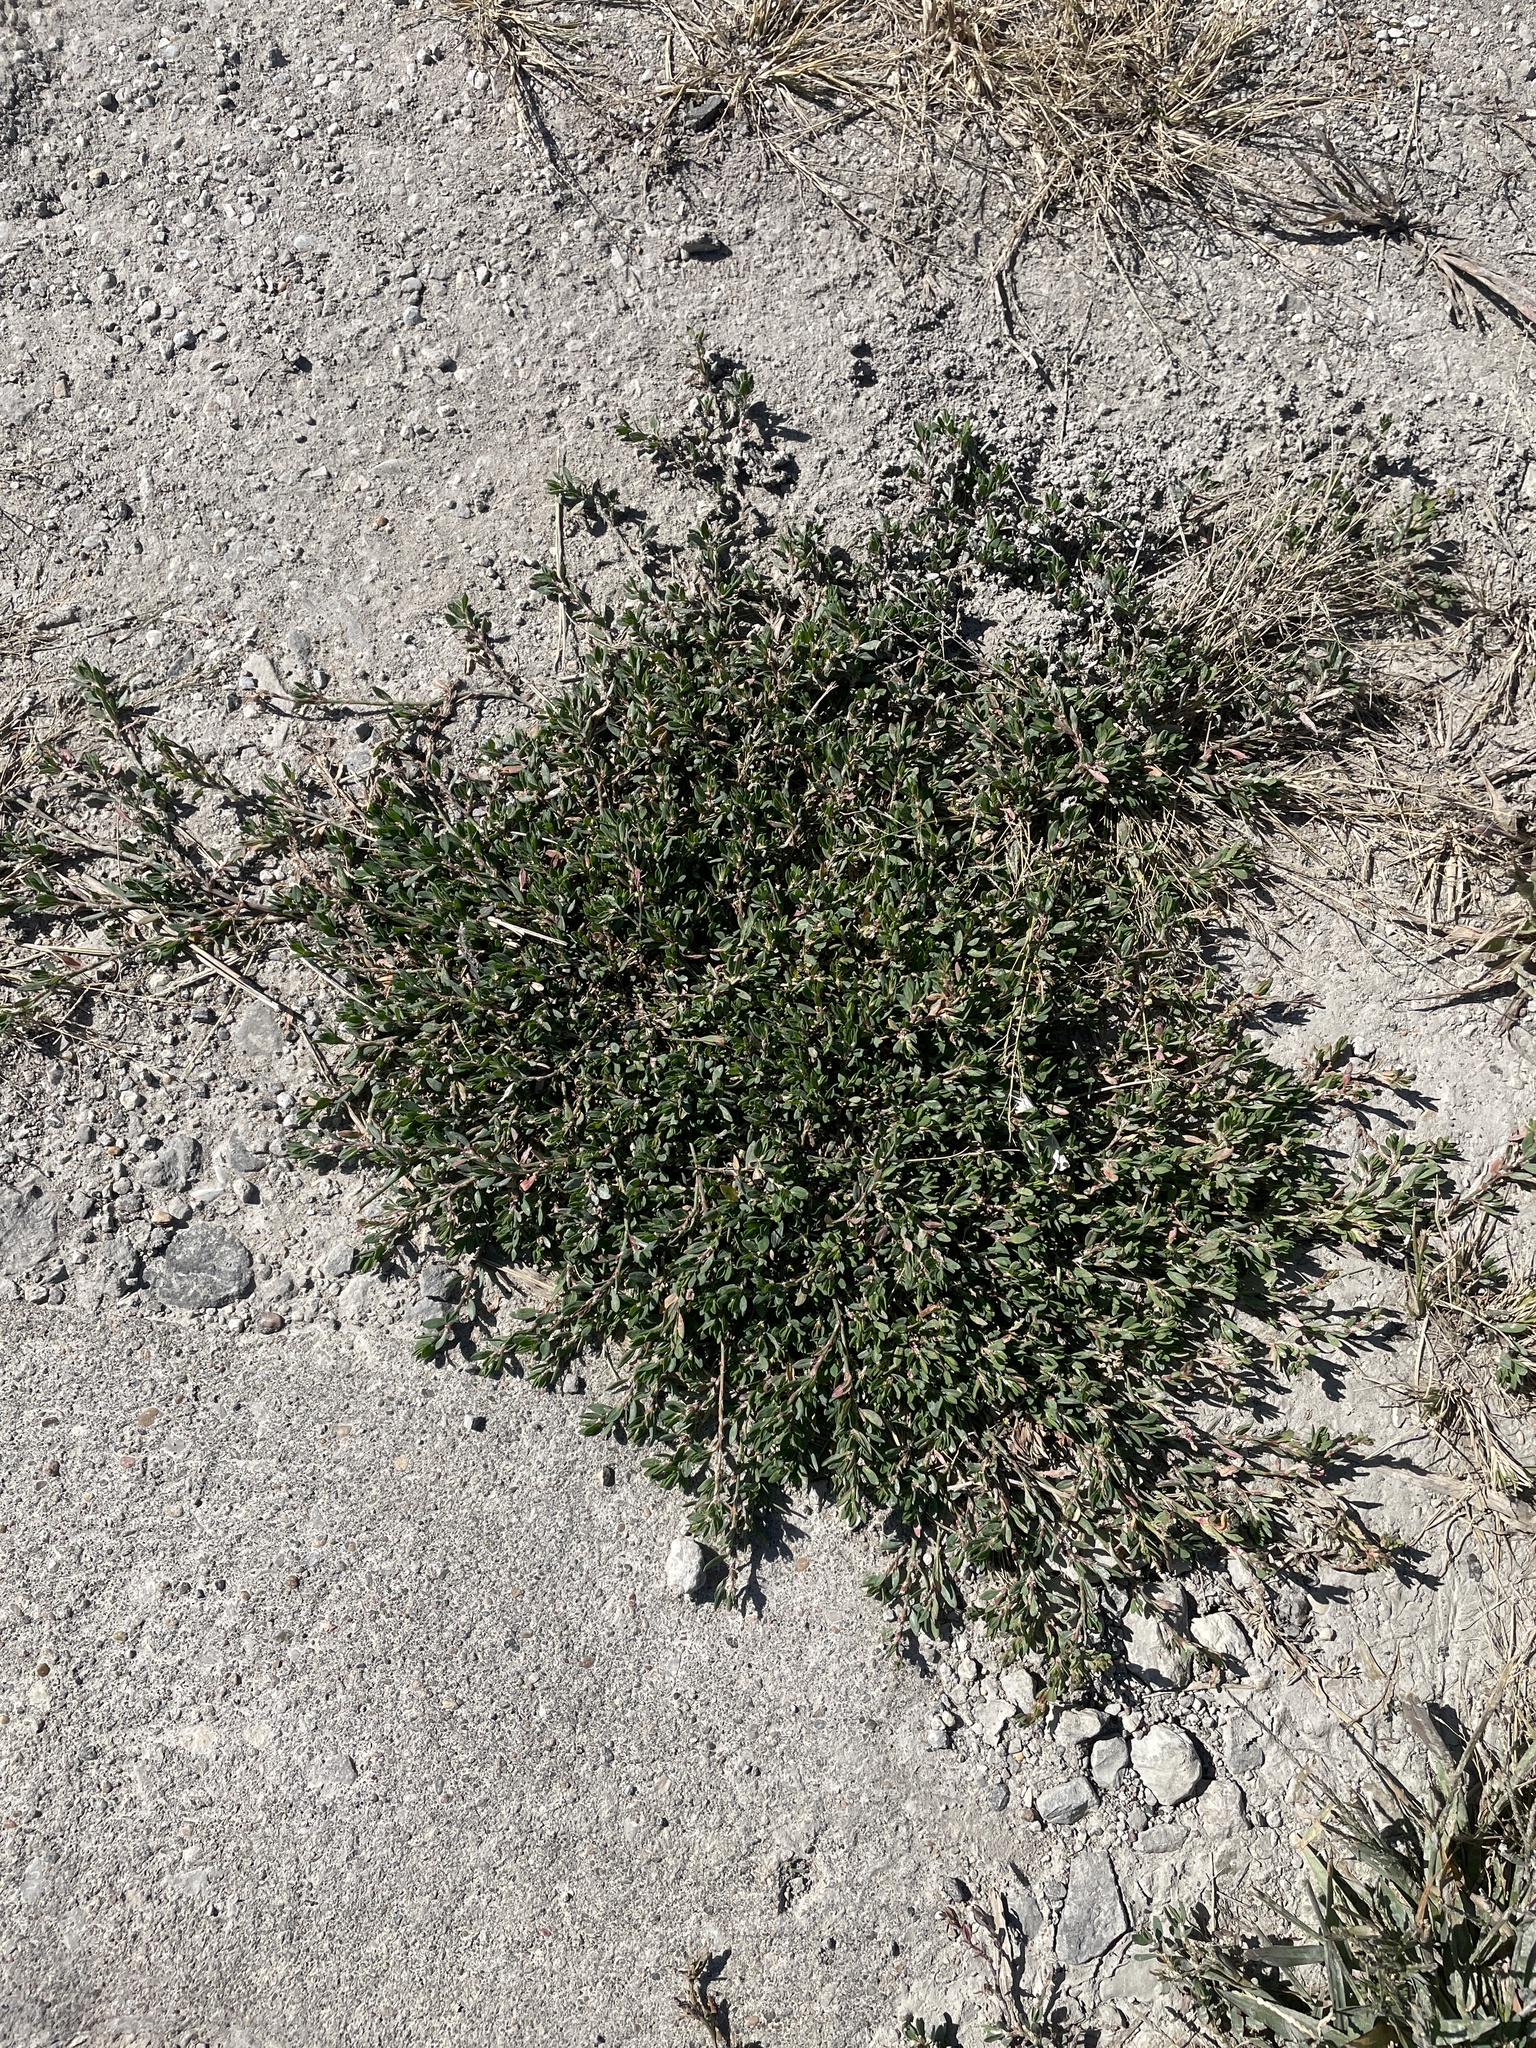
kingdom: Plantae
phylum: Tracheophyta
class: Magnoliopsida
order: Caryophyllales
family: Polygonaceae
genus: Polygonum
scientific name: Polygonum aviculare
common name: Prostrate knotweed
